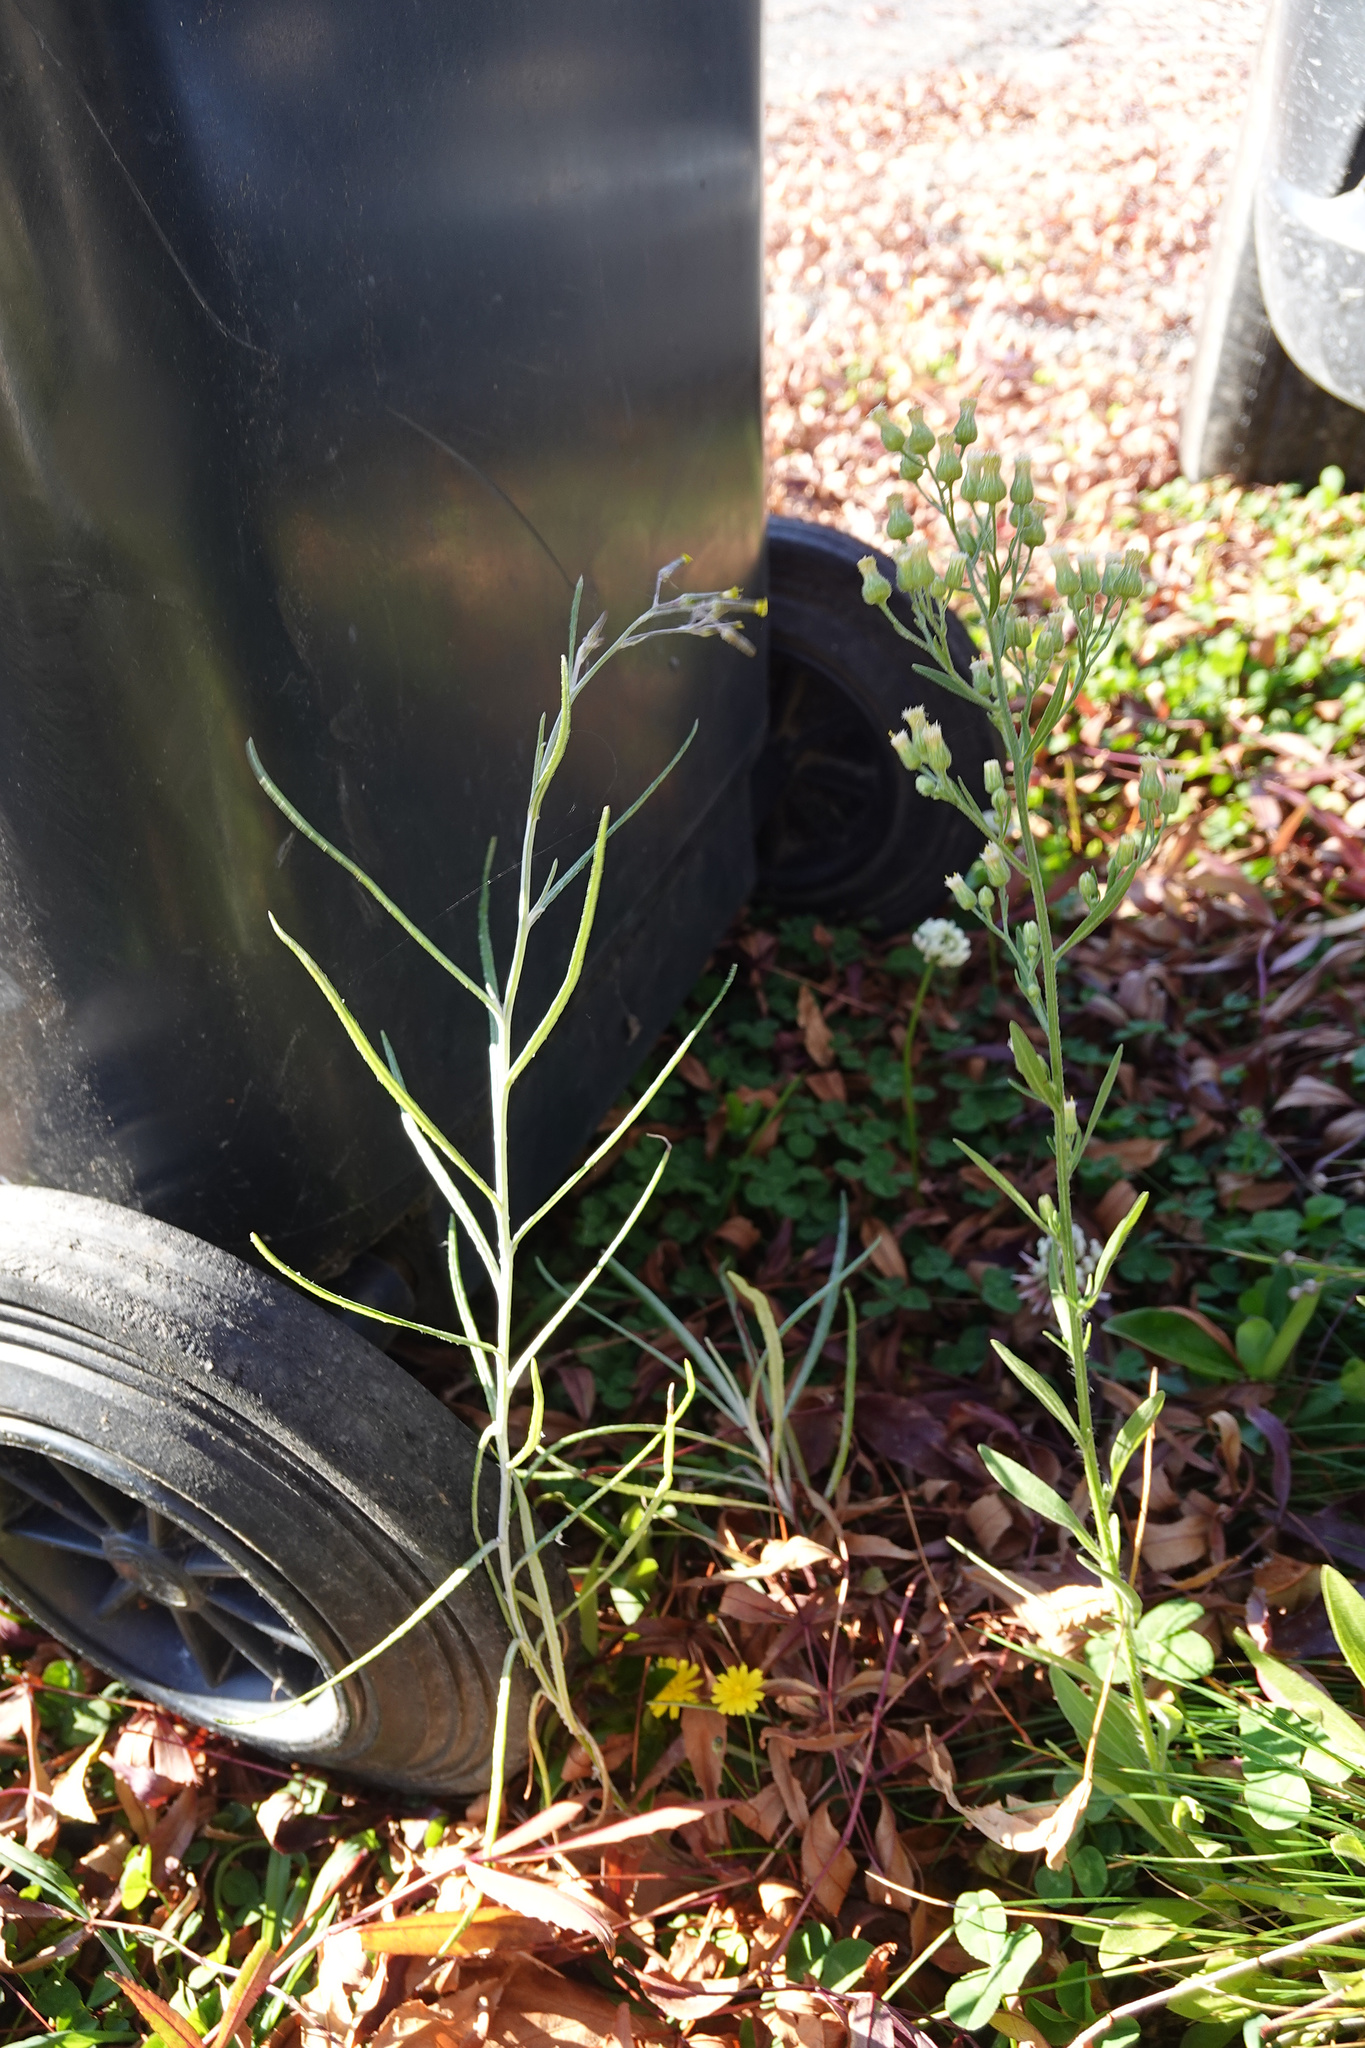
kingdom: Plantae
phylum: Tracheophyta
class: Magnoliopsida
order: Asterales
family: Asteraceae
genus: Erigeron
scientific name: Erigeron sumatrensis
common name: Daisy
